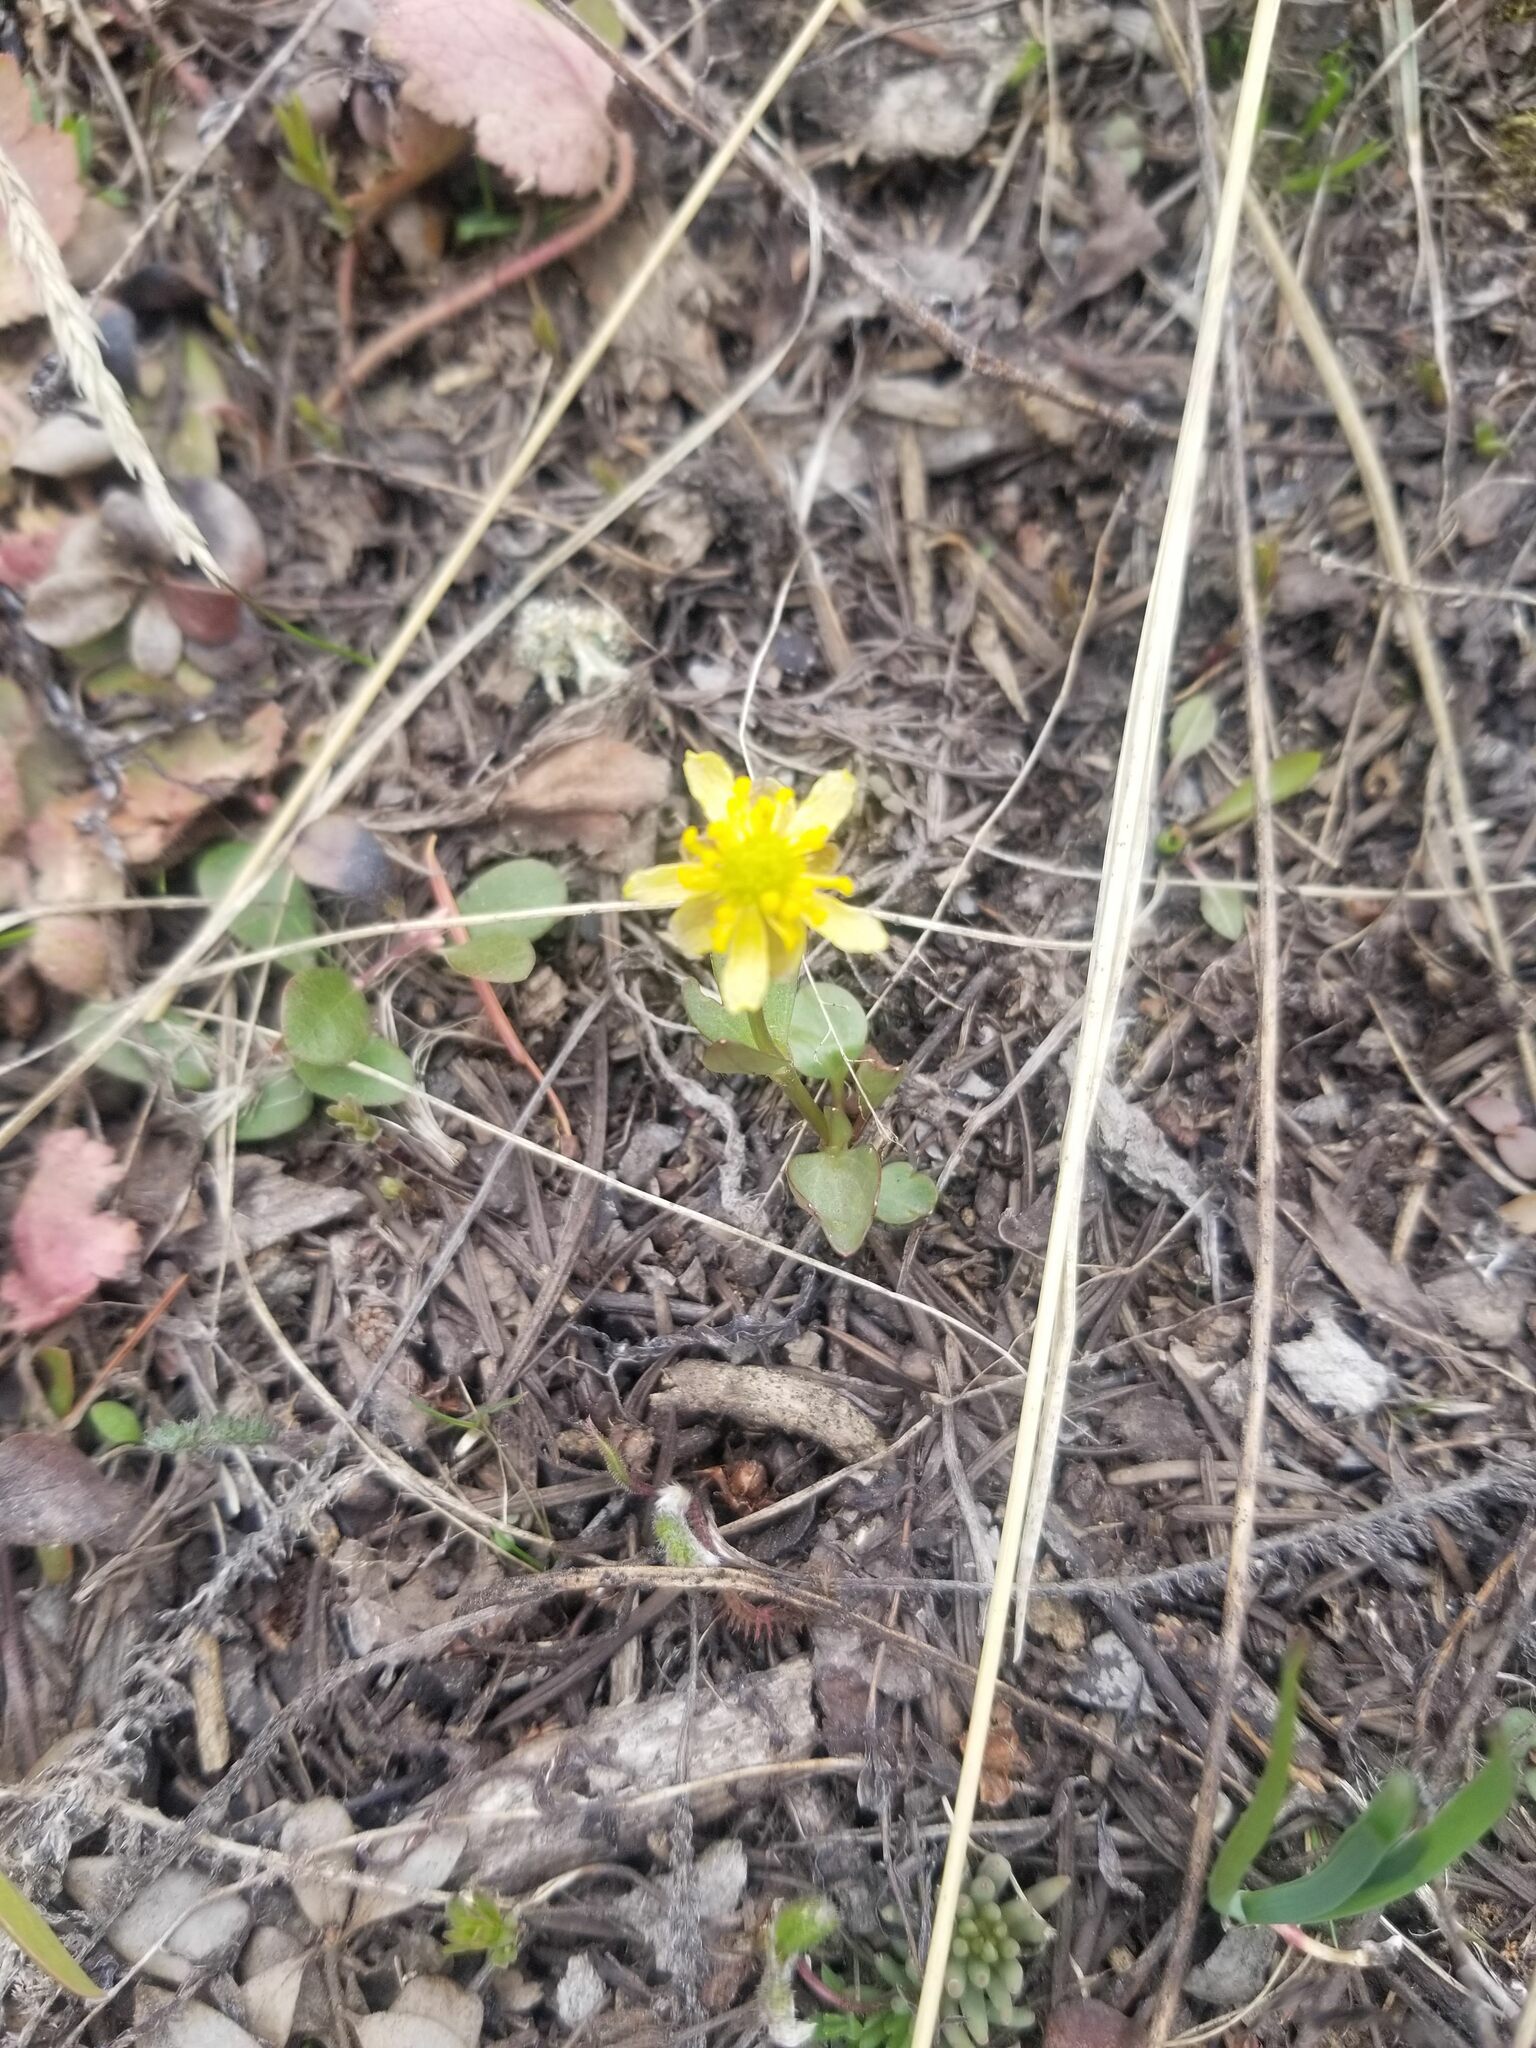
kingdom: Plantae
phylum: Tracheophyta
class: Magnoliopsida
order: Ranunculales
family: Ranunculaceae
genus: Ranunculus
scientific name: Ranunculus glaberrimus
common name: Sagebrush buttercup
